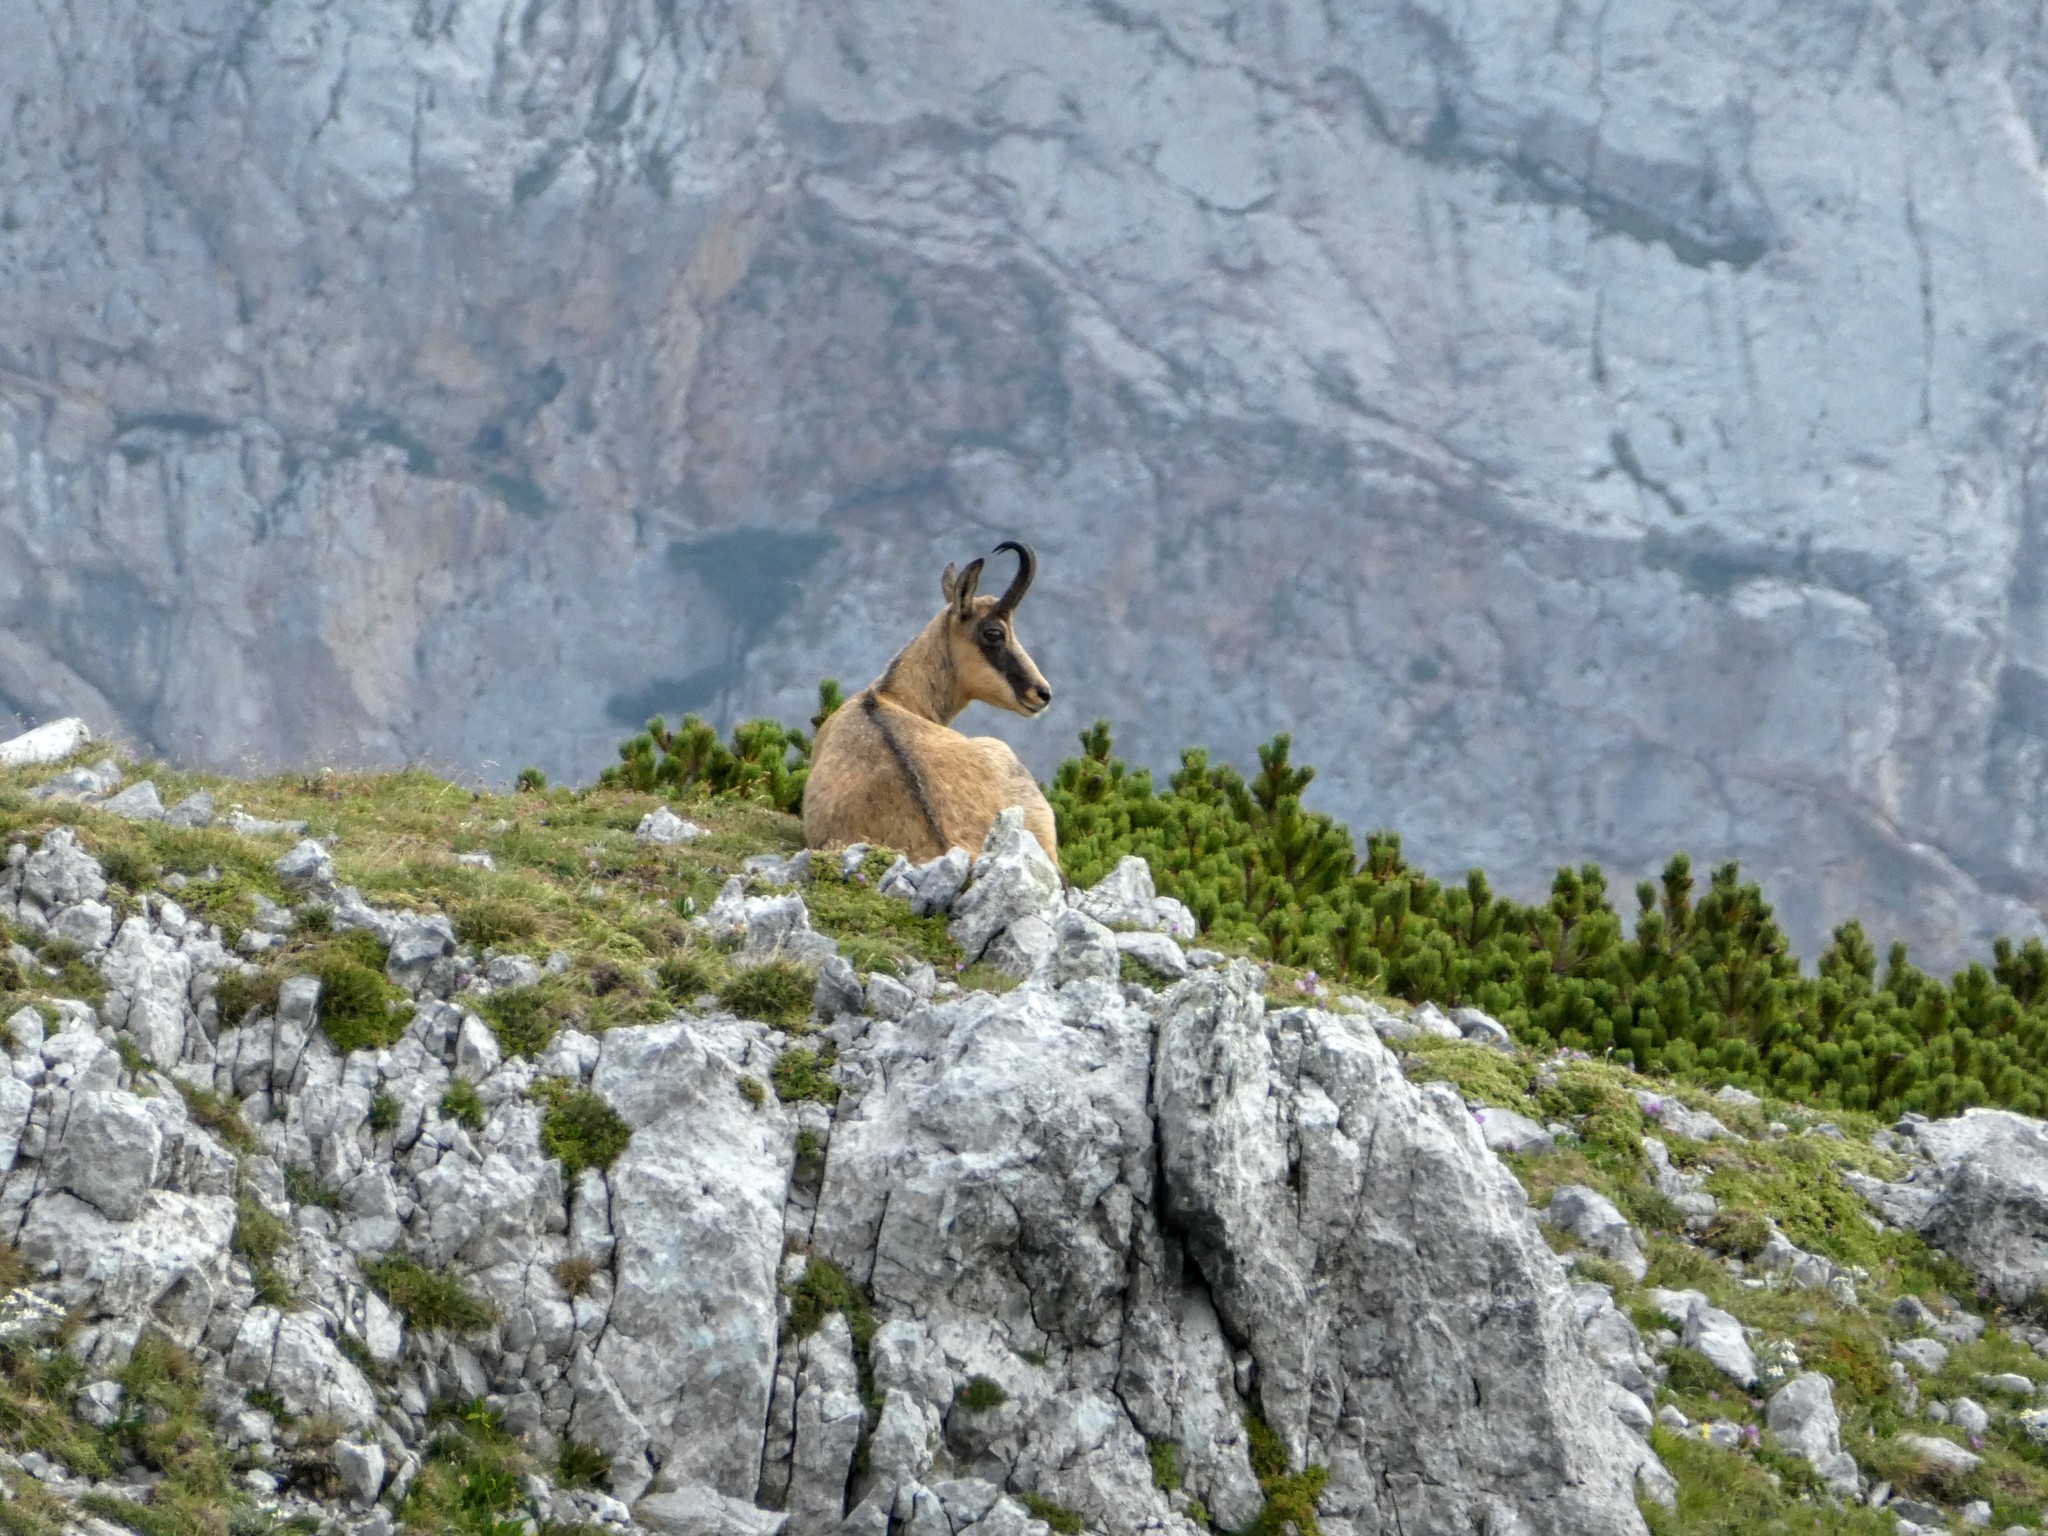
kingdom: Animalia
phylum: Chordata
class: Mammalia
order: Artiodactyla
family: Bovidae
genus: Rupicapra
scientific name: Rupicapra rupicapra
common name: Chamois
